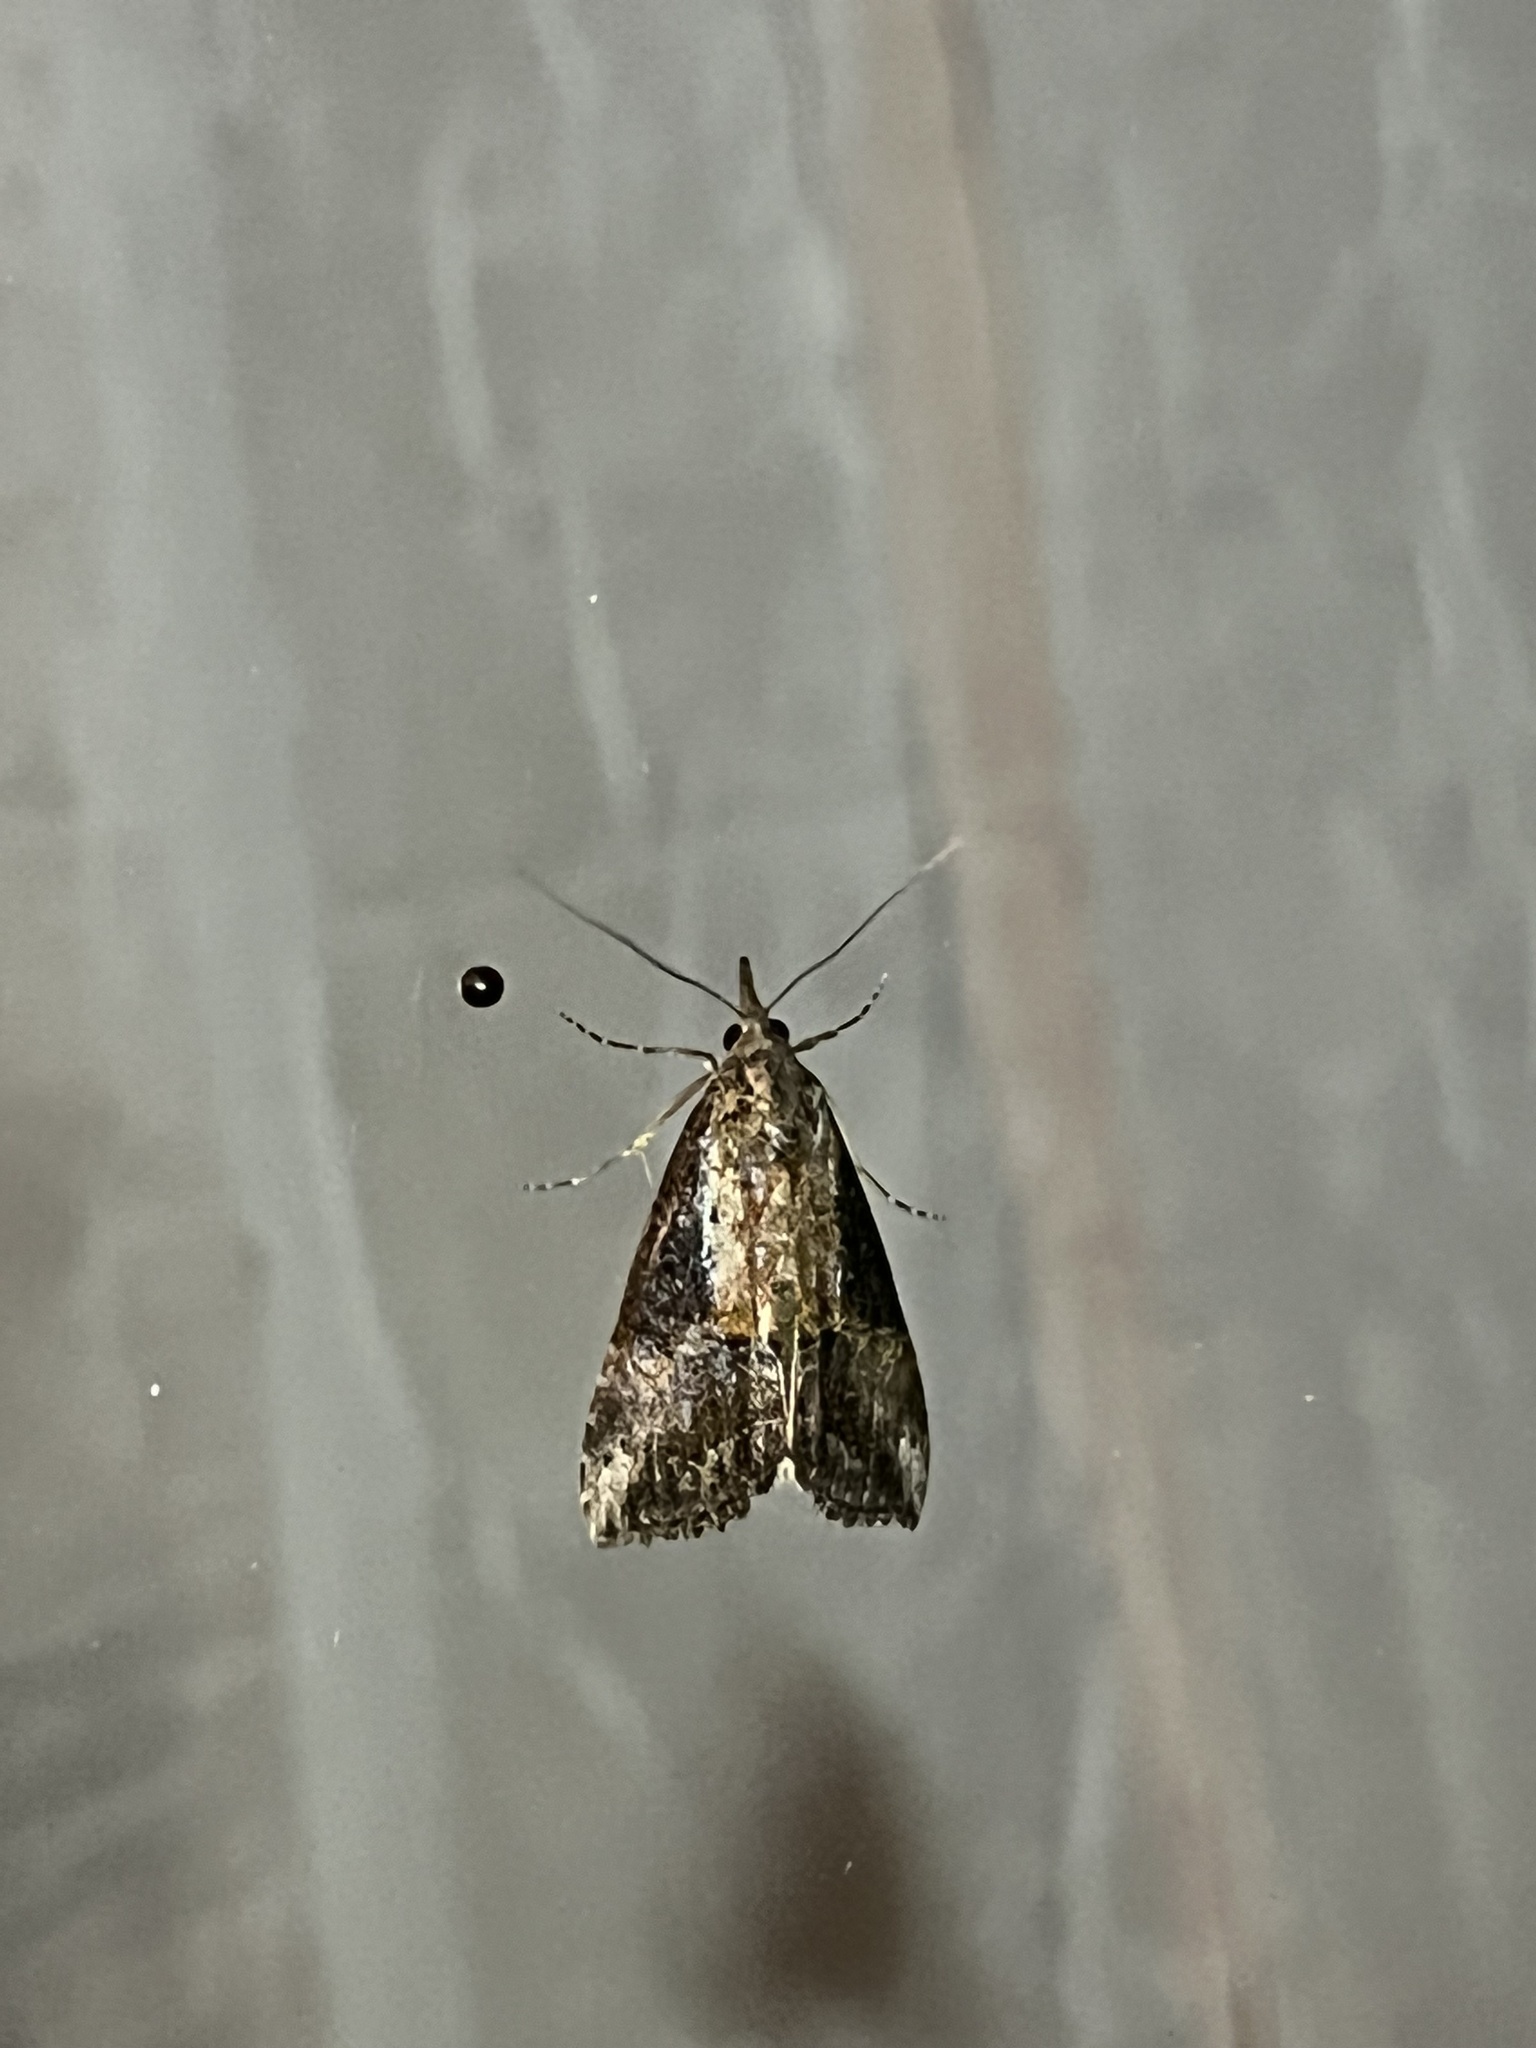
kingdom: Animalia
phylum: Arthropoda
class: Insecta
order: Lepidoptera
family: Erebidae
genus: Hypena
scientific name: Hypena scabra
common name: Green cloverworm
